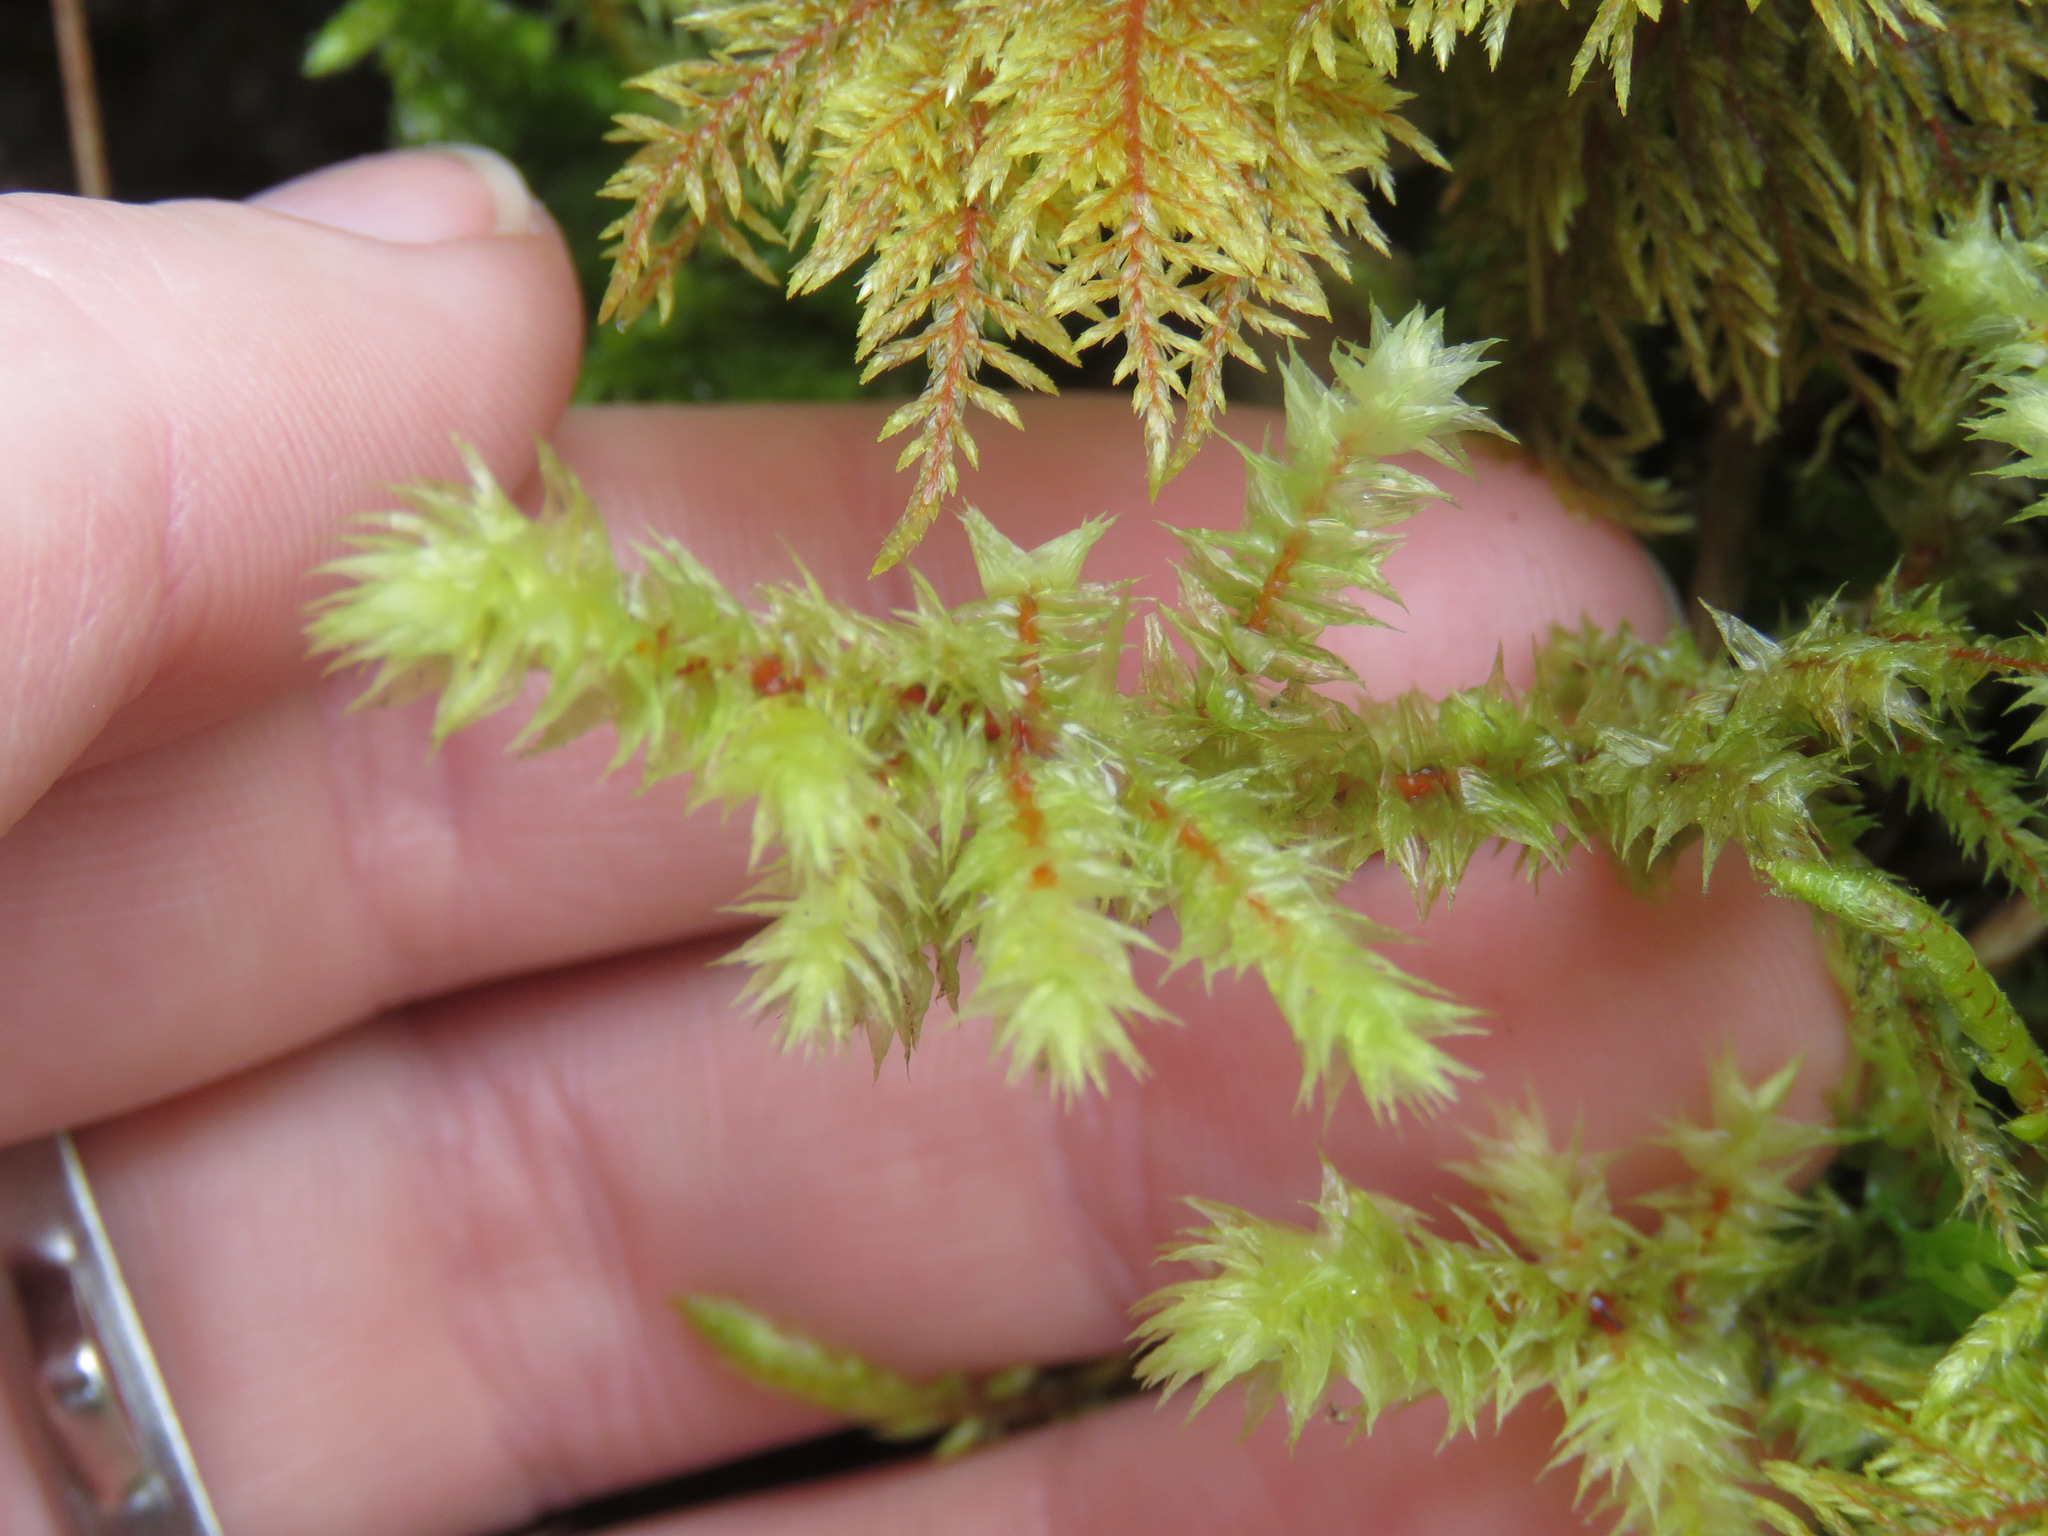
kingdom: Plantae
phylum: Bryophyta
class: Bryopsida
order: Hypnales
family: Hylocomiaceae
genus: Hylocomiadelphus
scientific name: Hylocomiadelphus triquetrus
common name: Rough goose neck moss
